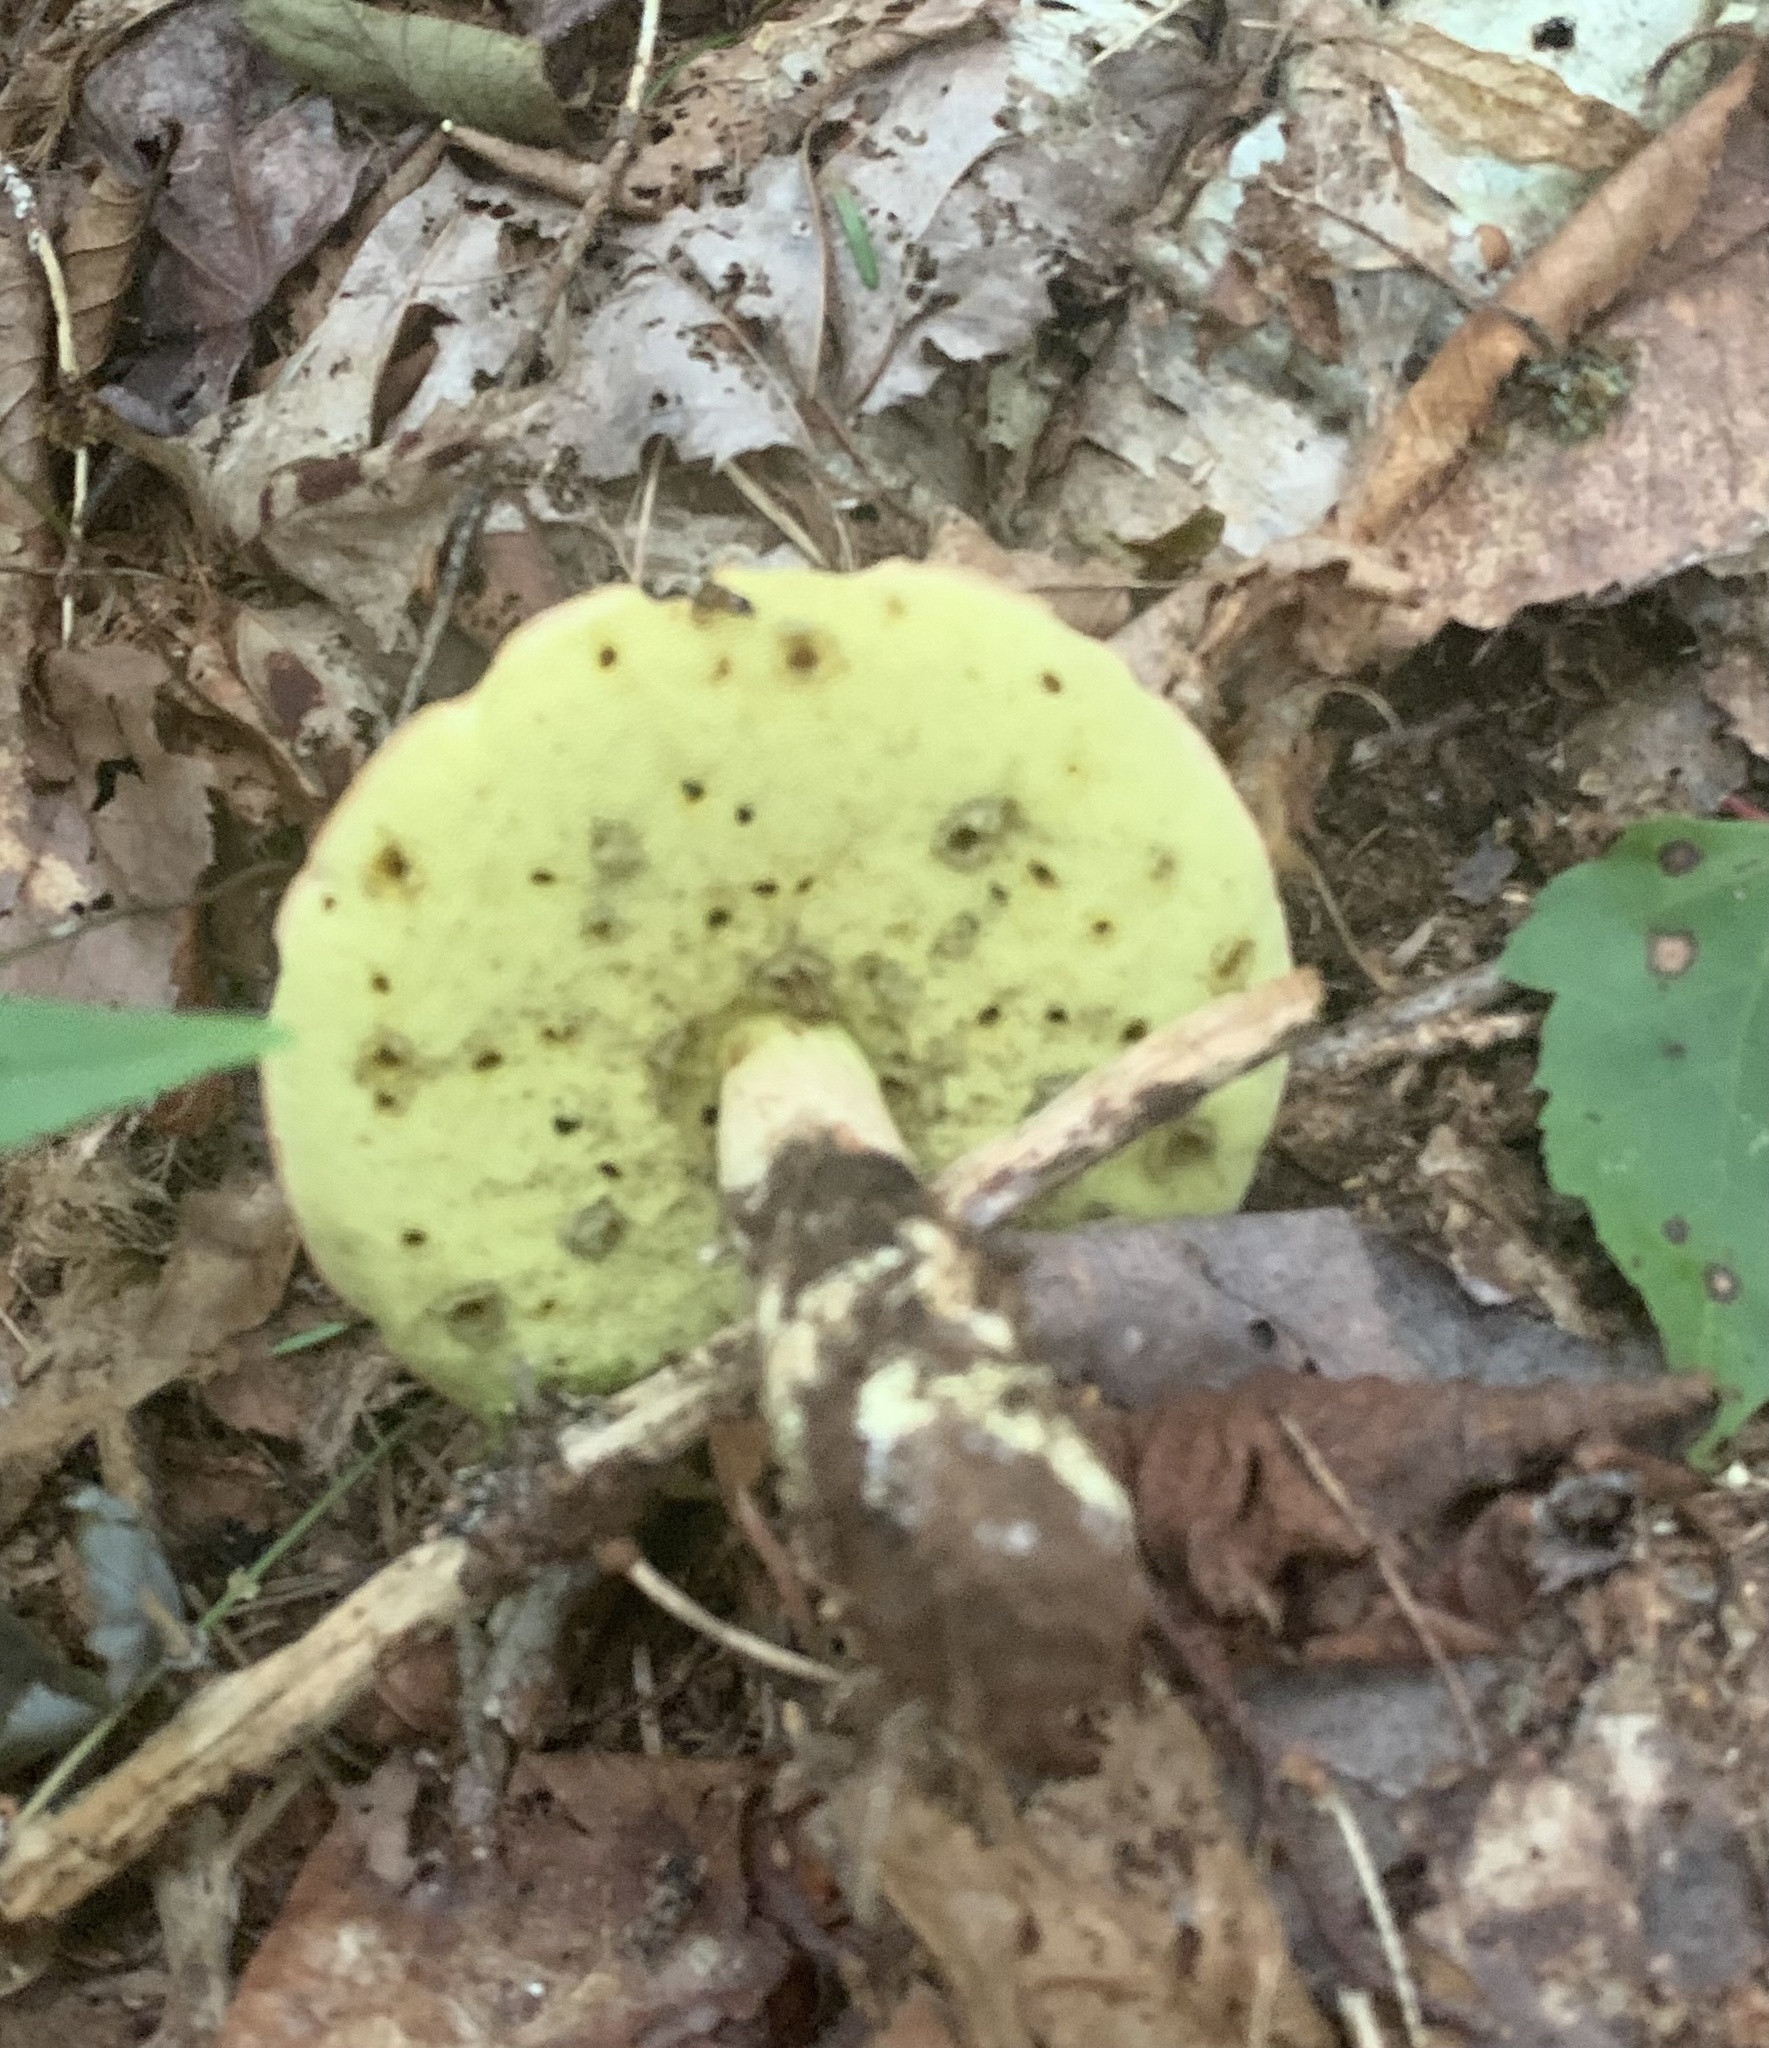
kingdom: Fungi
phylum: Basidiomycota
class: Agaricomycetes
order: Boletales
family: Boletaceae
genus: Hemileccinum
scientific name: Hemileccinum subglabripes
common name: Smoothish-stemmed bolete
